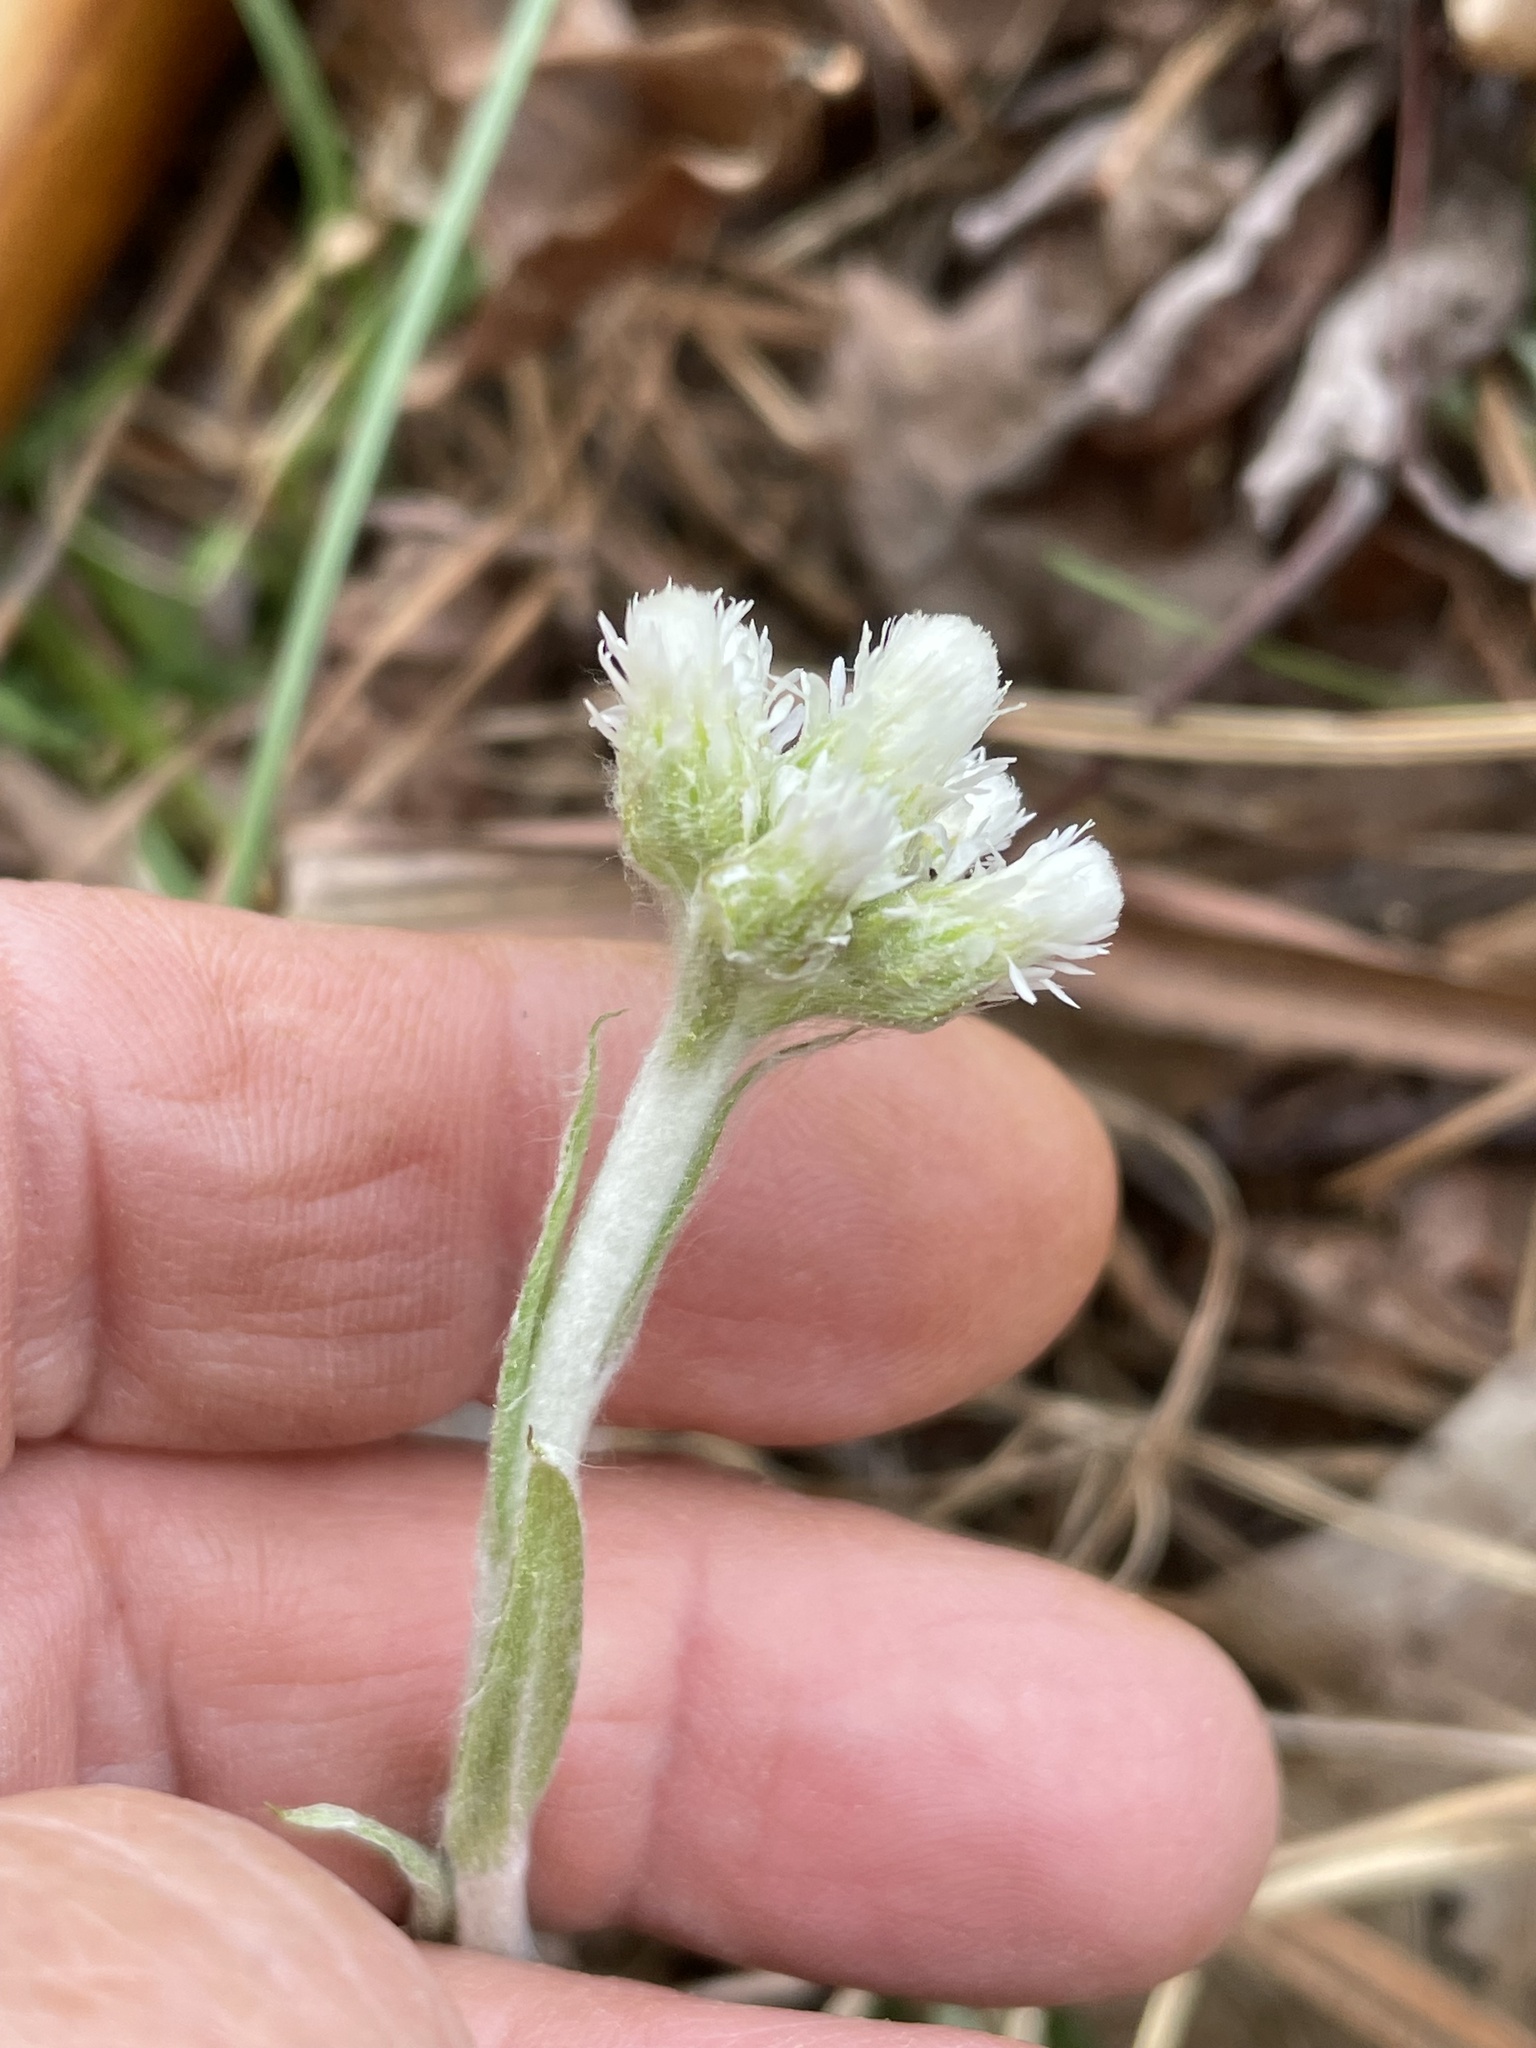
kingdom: Plantae
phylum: Tracheophyta
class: Magnoliopsida
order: Asterales
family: Asteraceae
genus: Antennaria
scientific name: Antennaria parlinii
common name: Parlin's pussytoes
